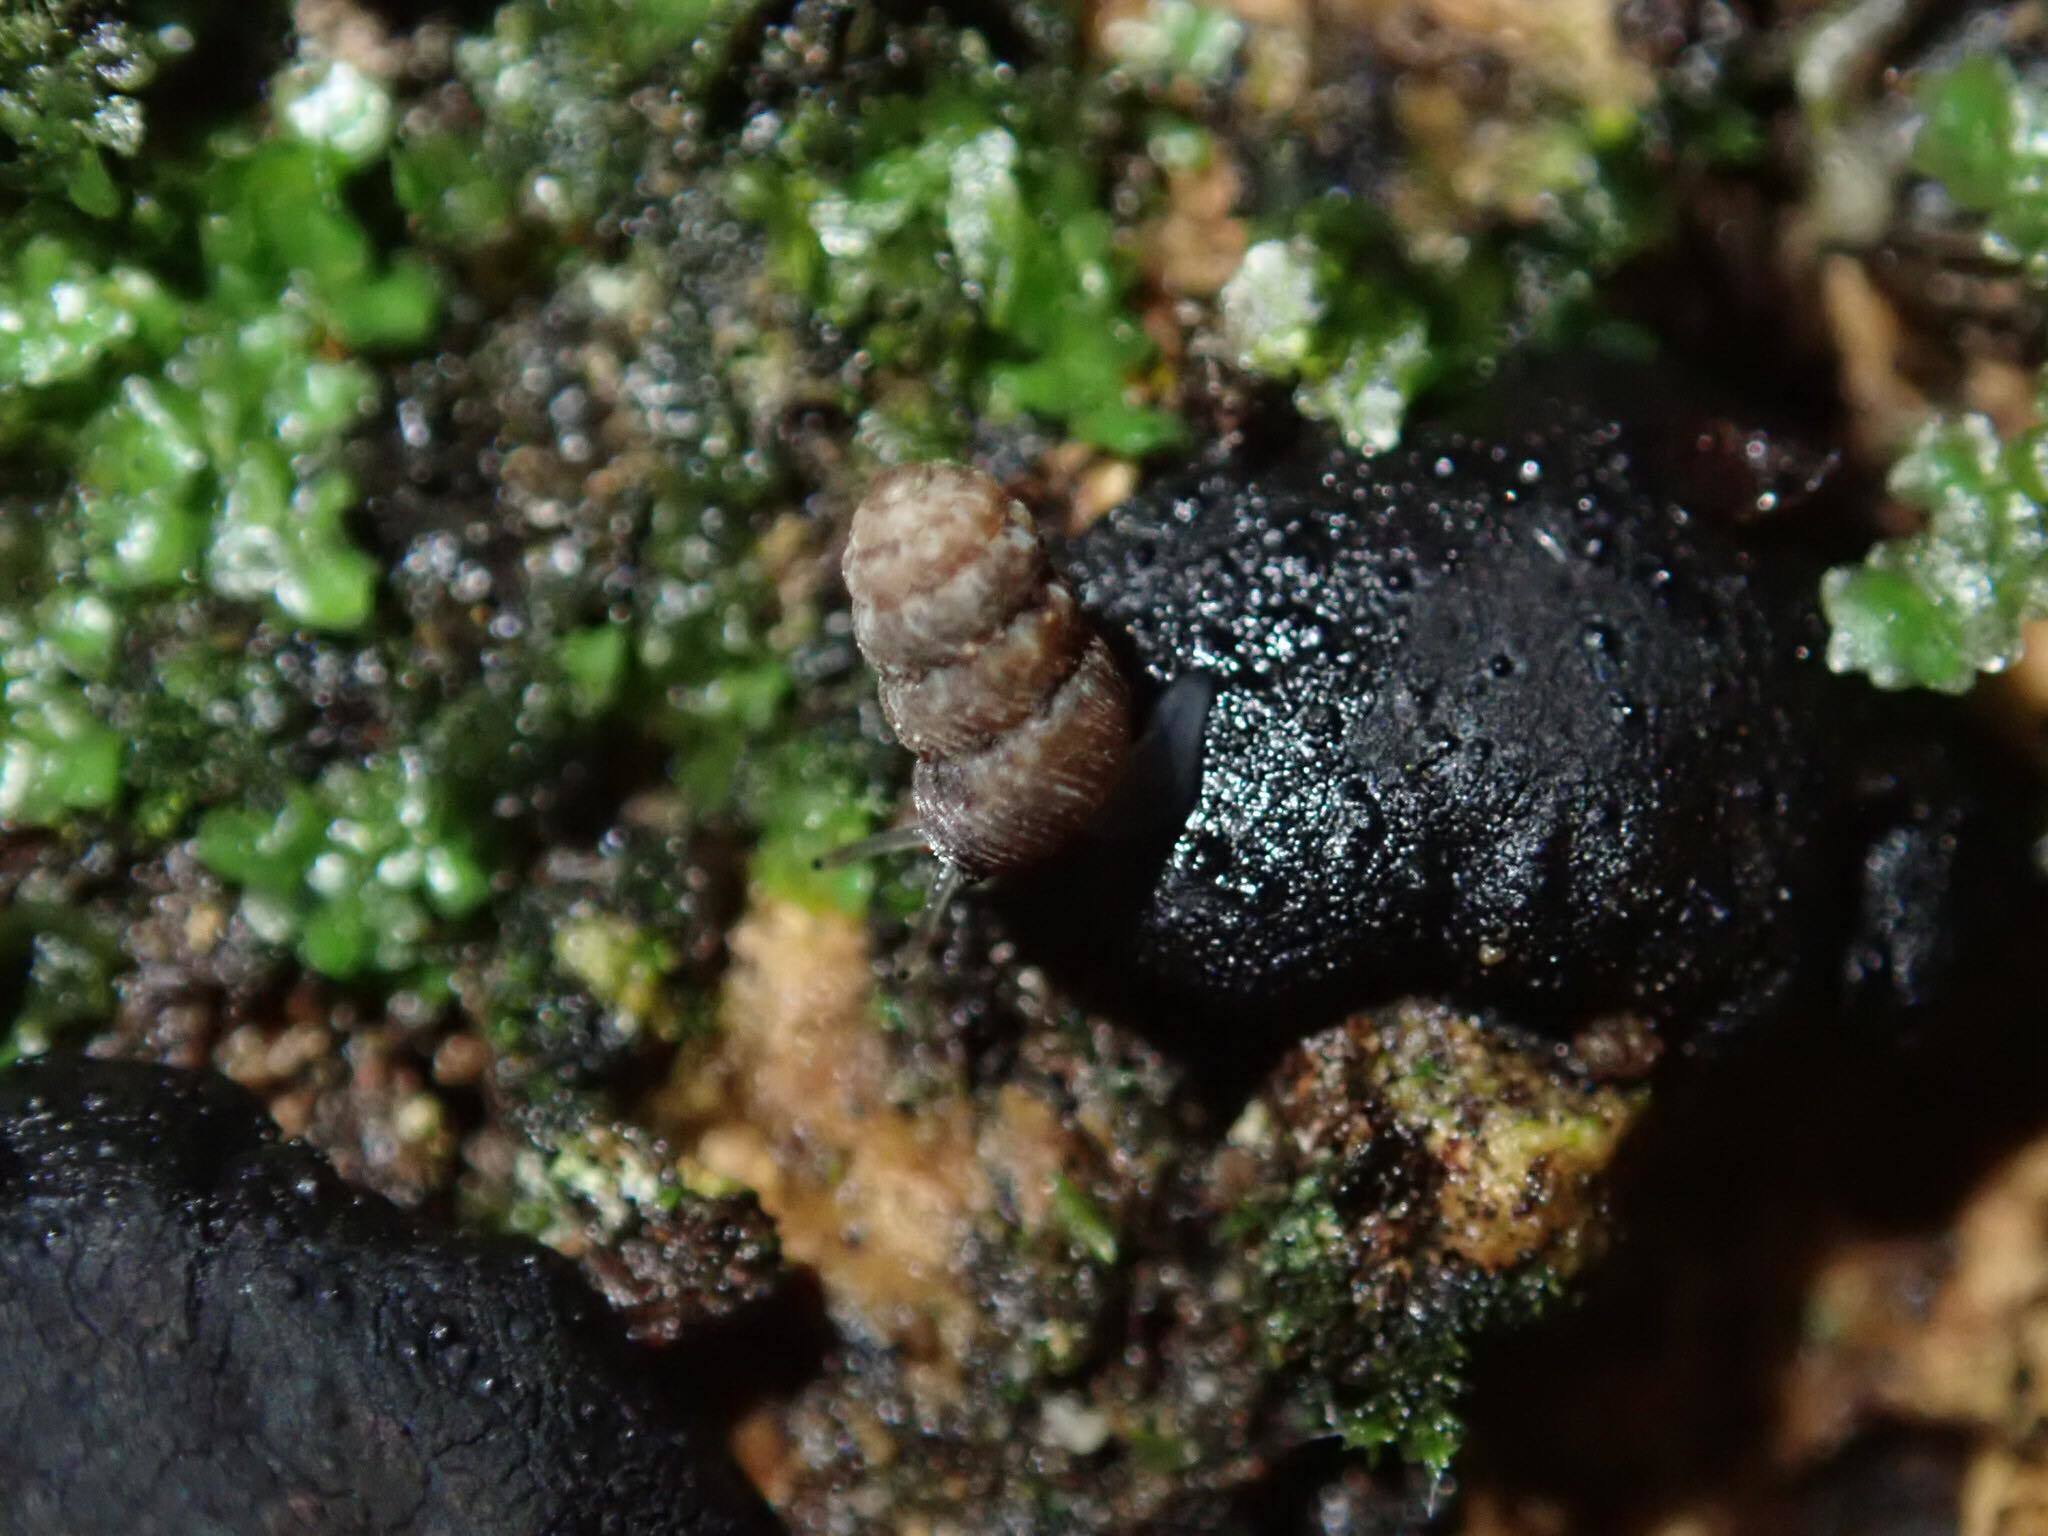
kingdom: Animalia
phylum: Mollusca
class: Gastropoda
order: Stylommatophora
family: Charopidae
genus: Phenacharopa
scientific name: Phenacharopa novoseelandica
